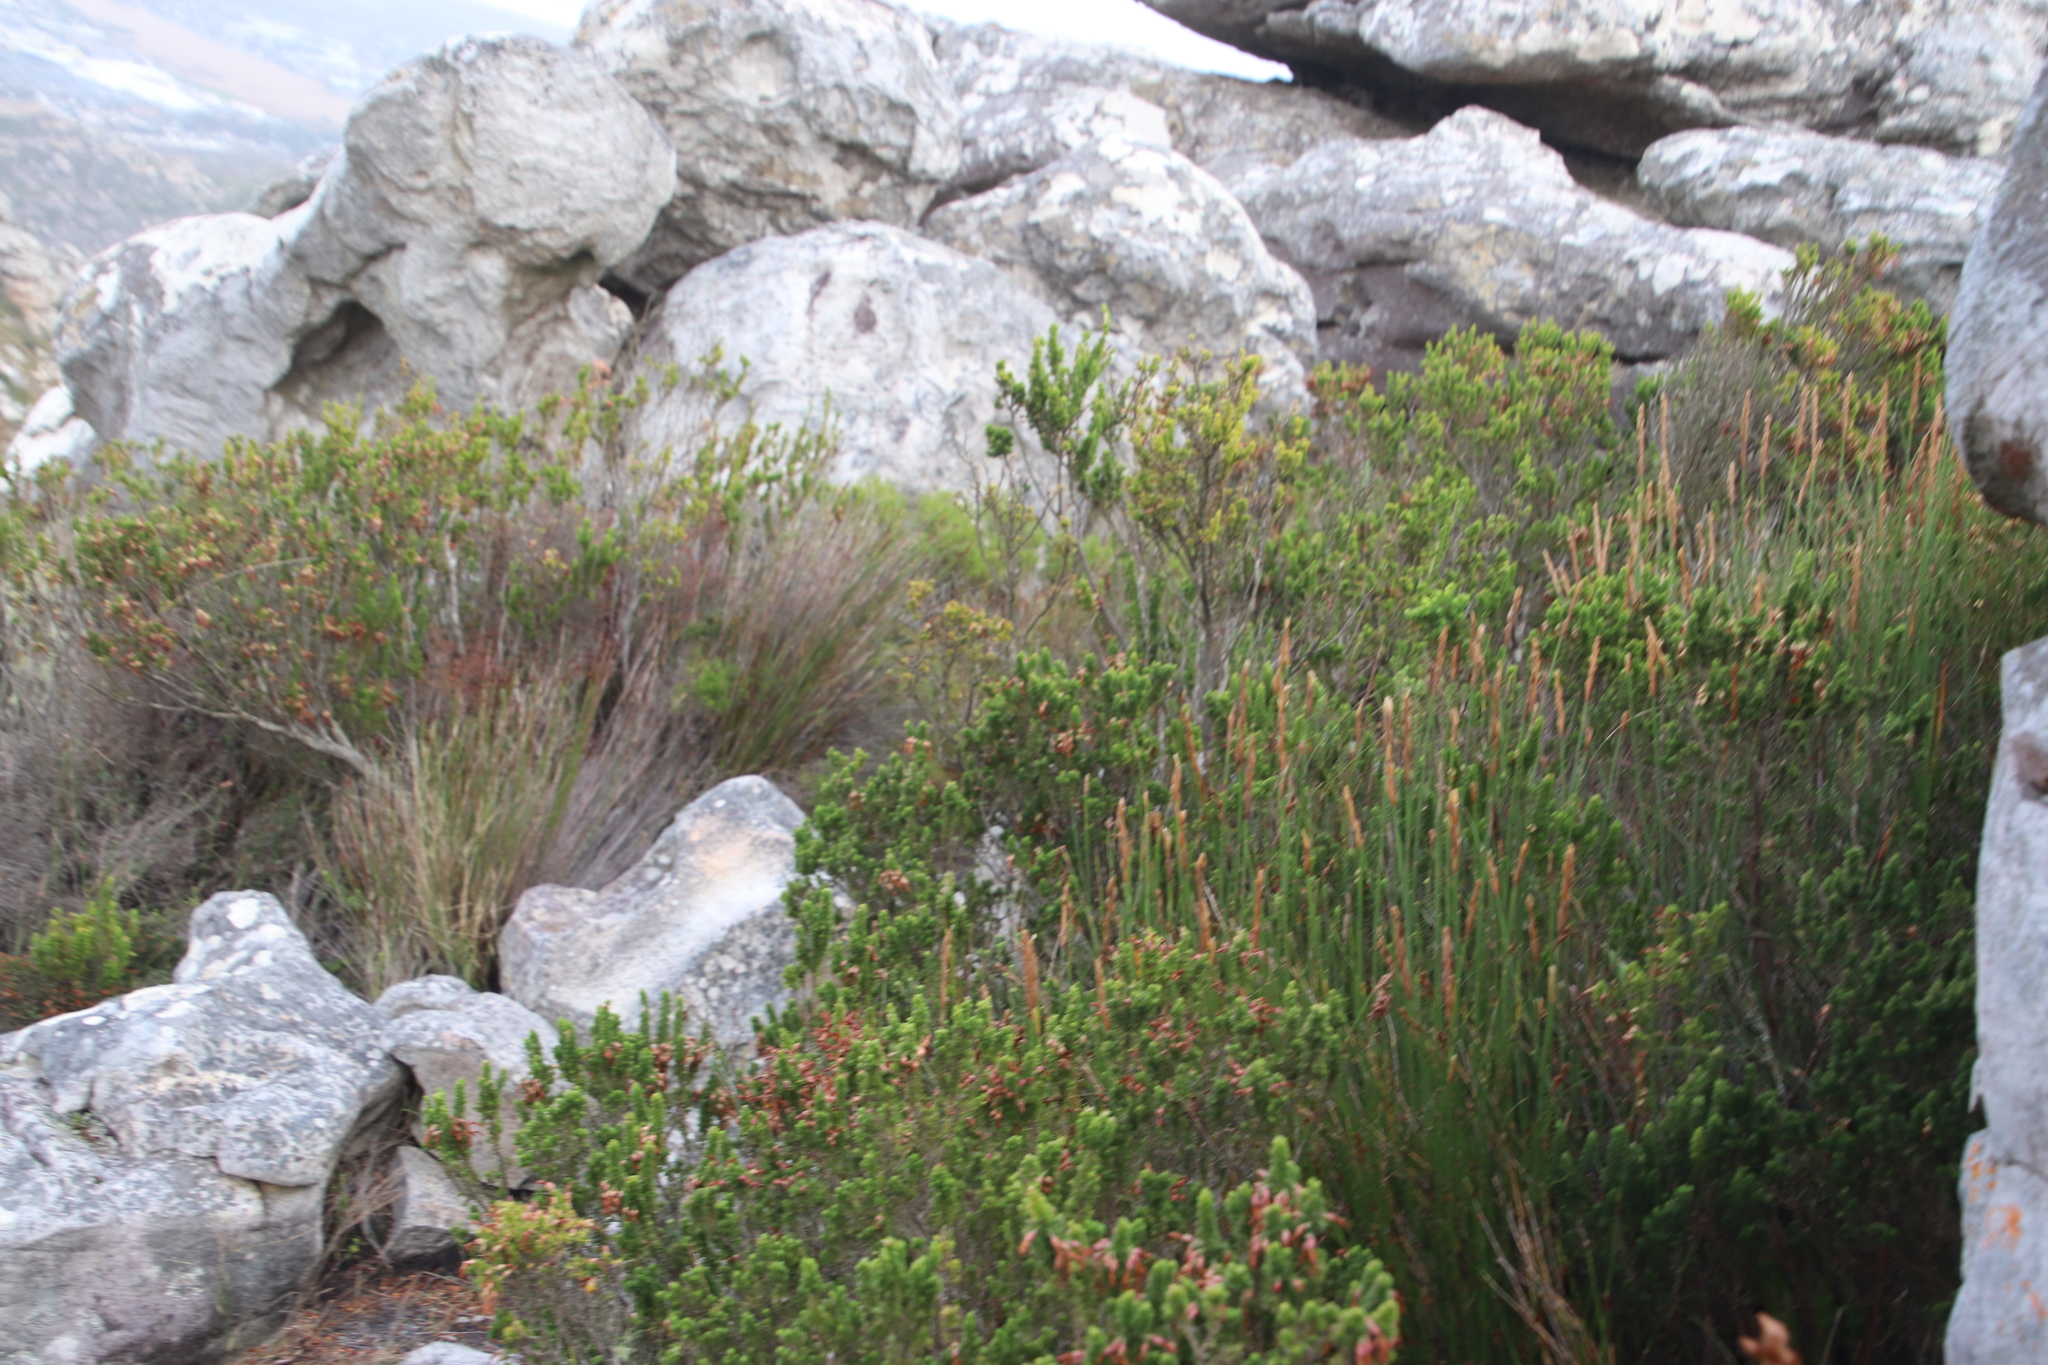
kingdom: Plantae
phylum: Tracheophyta
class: Magnoliopsida
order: Ericales
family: Ericaceae
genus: Erica
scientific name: Erica coccinea
